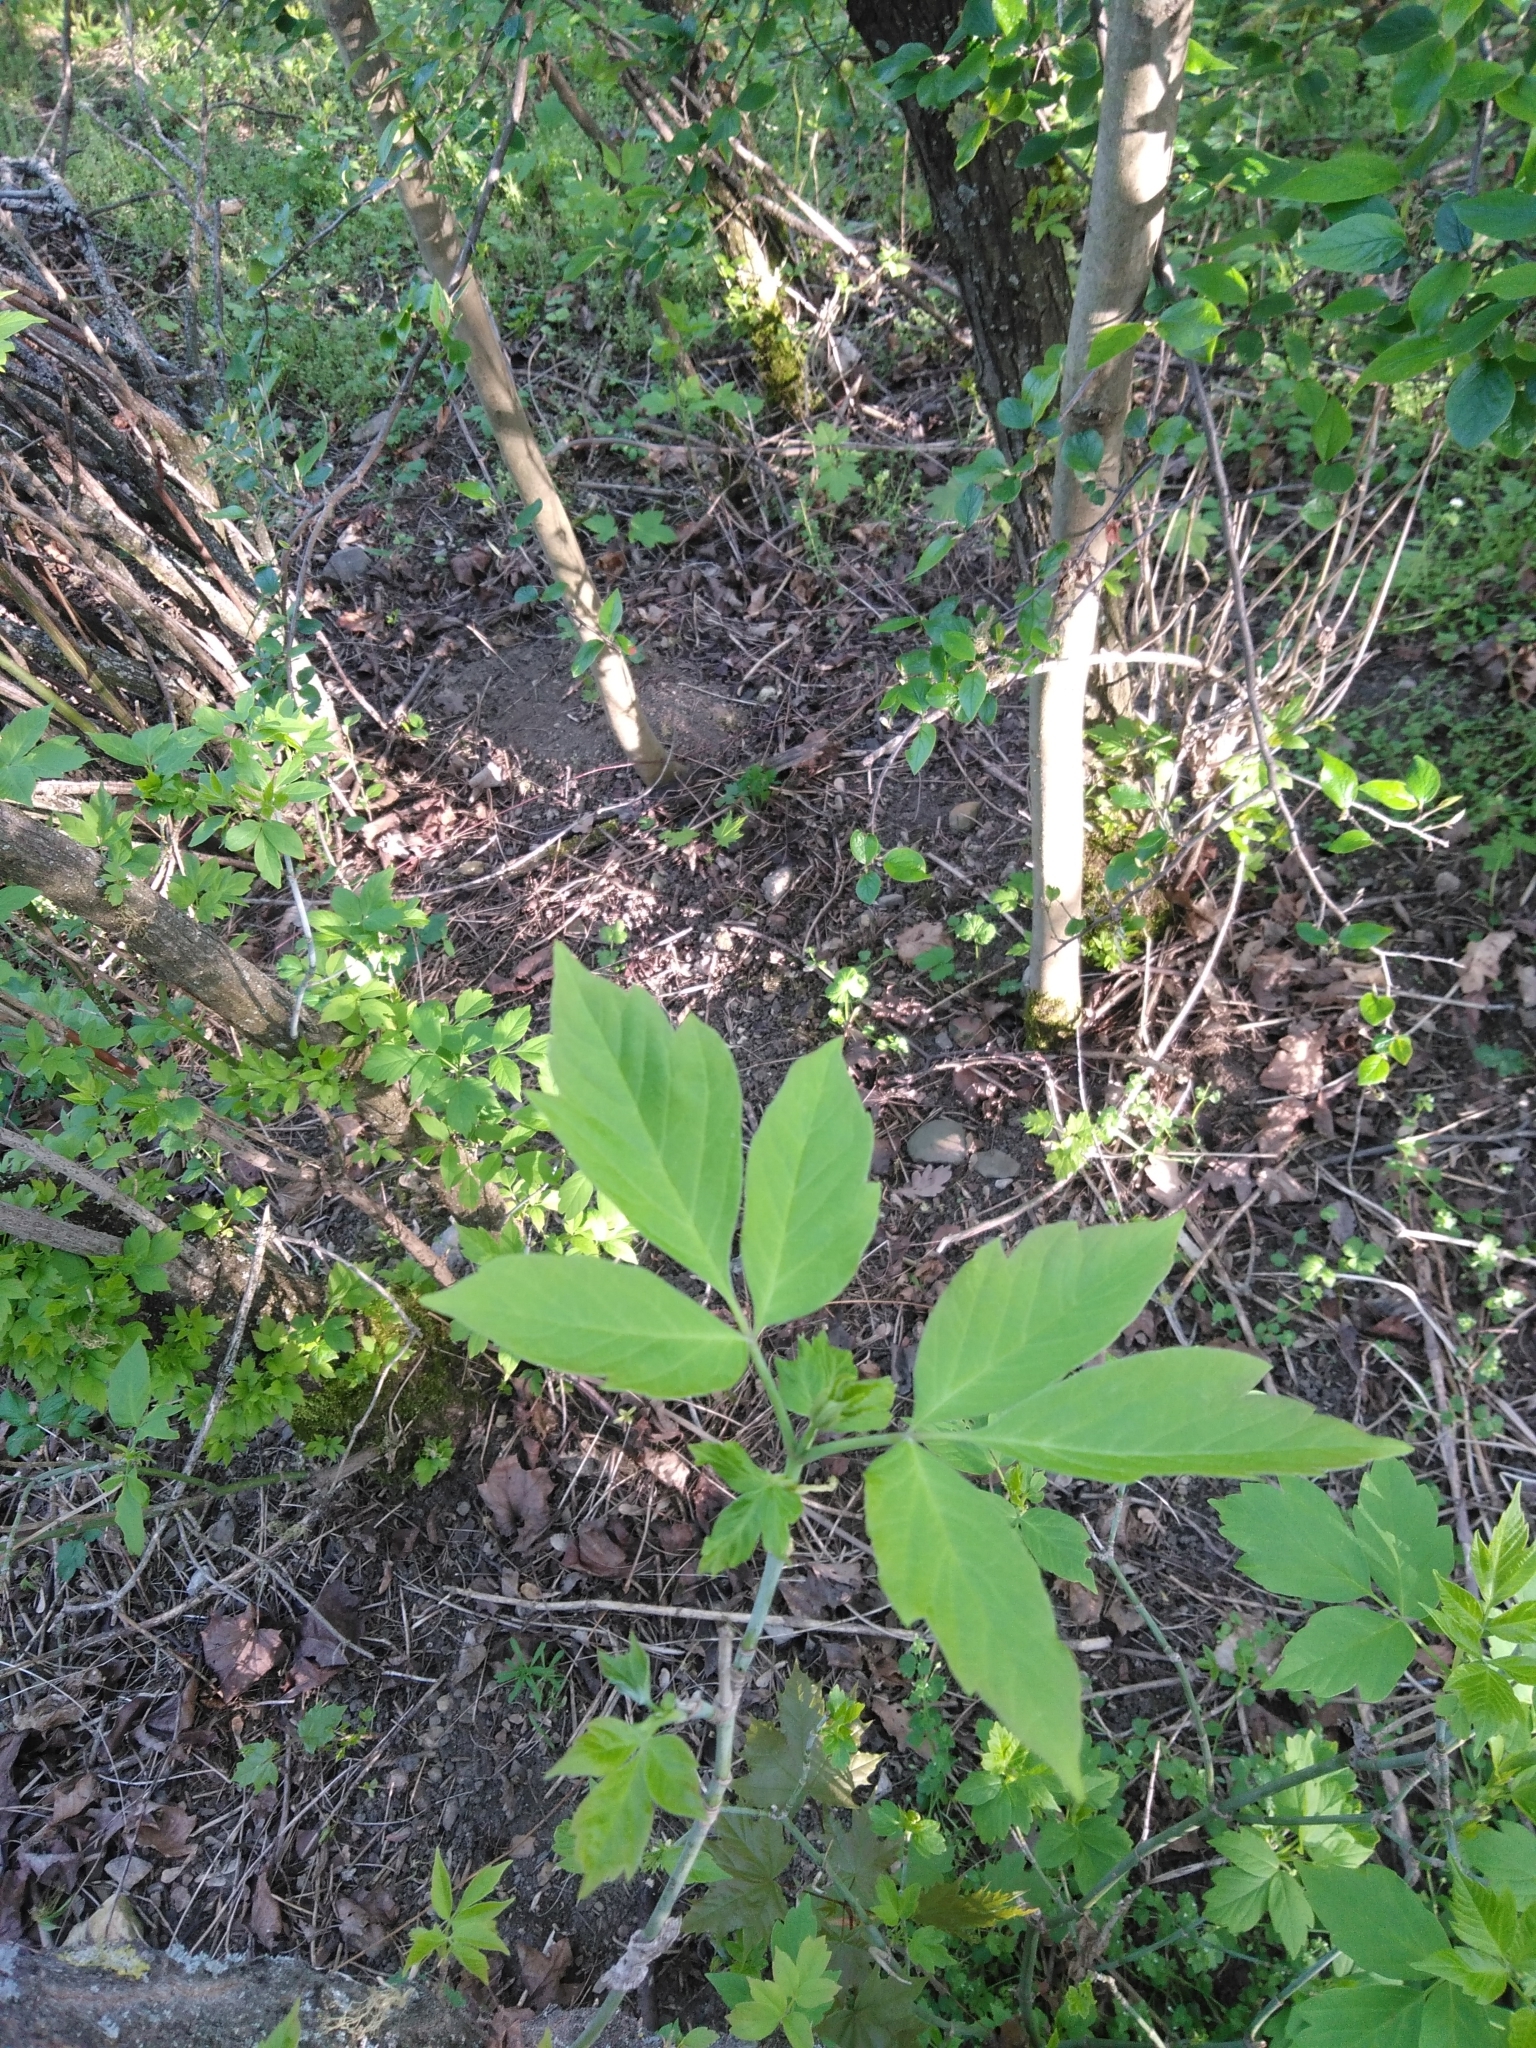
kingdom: Plantae
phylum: Tracheophyta
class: Magnoliopsida
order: Sapindales
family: Sapindaceae
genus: Acer
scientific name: Acer negundo
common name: Ashleaf maple
